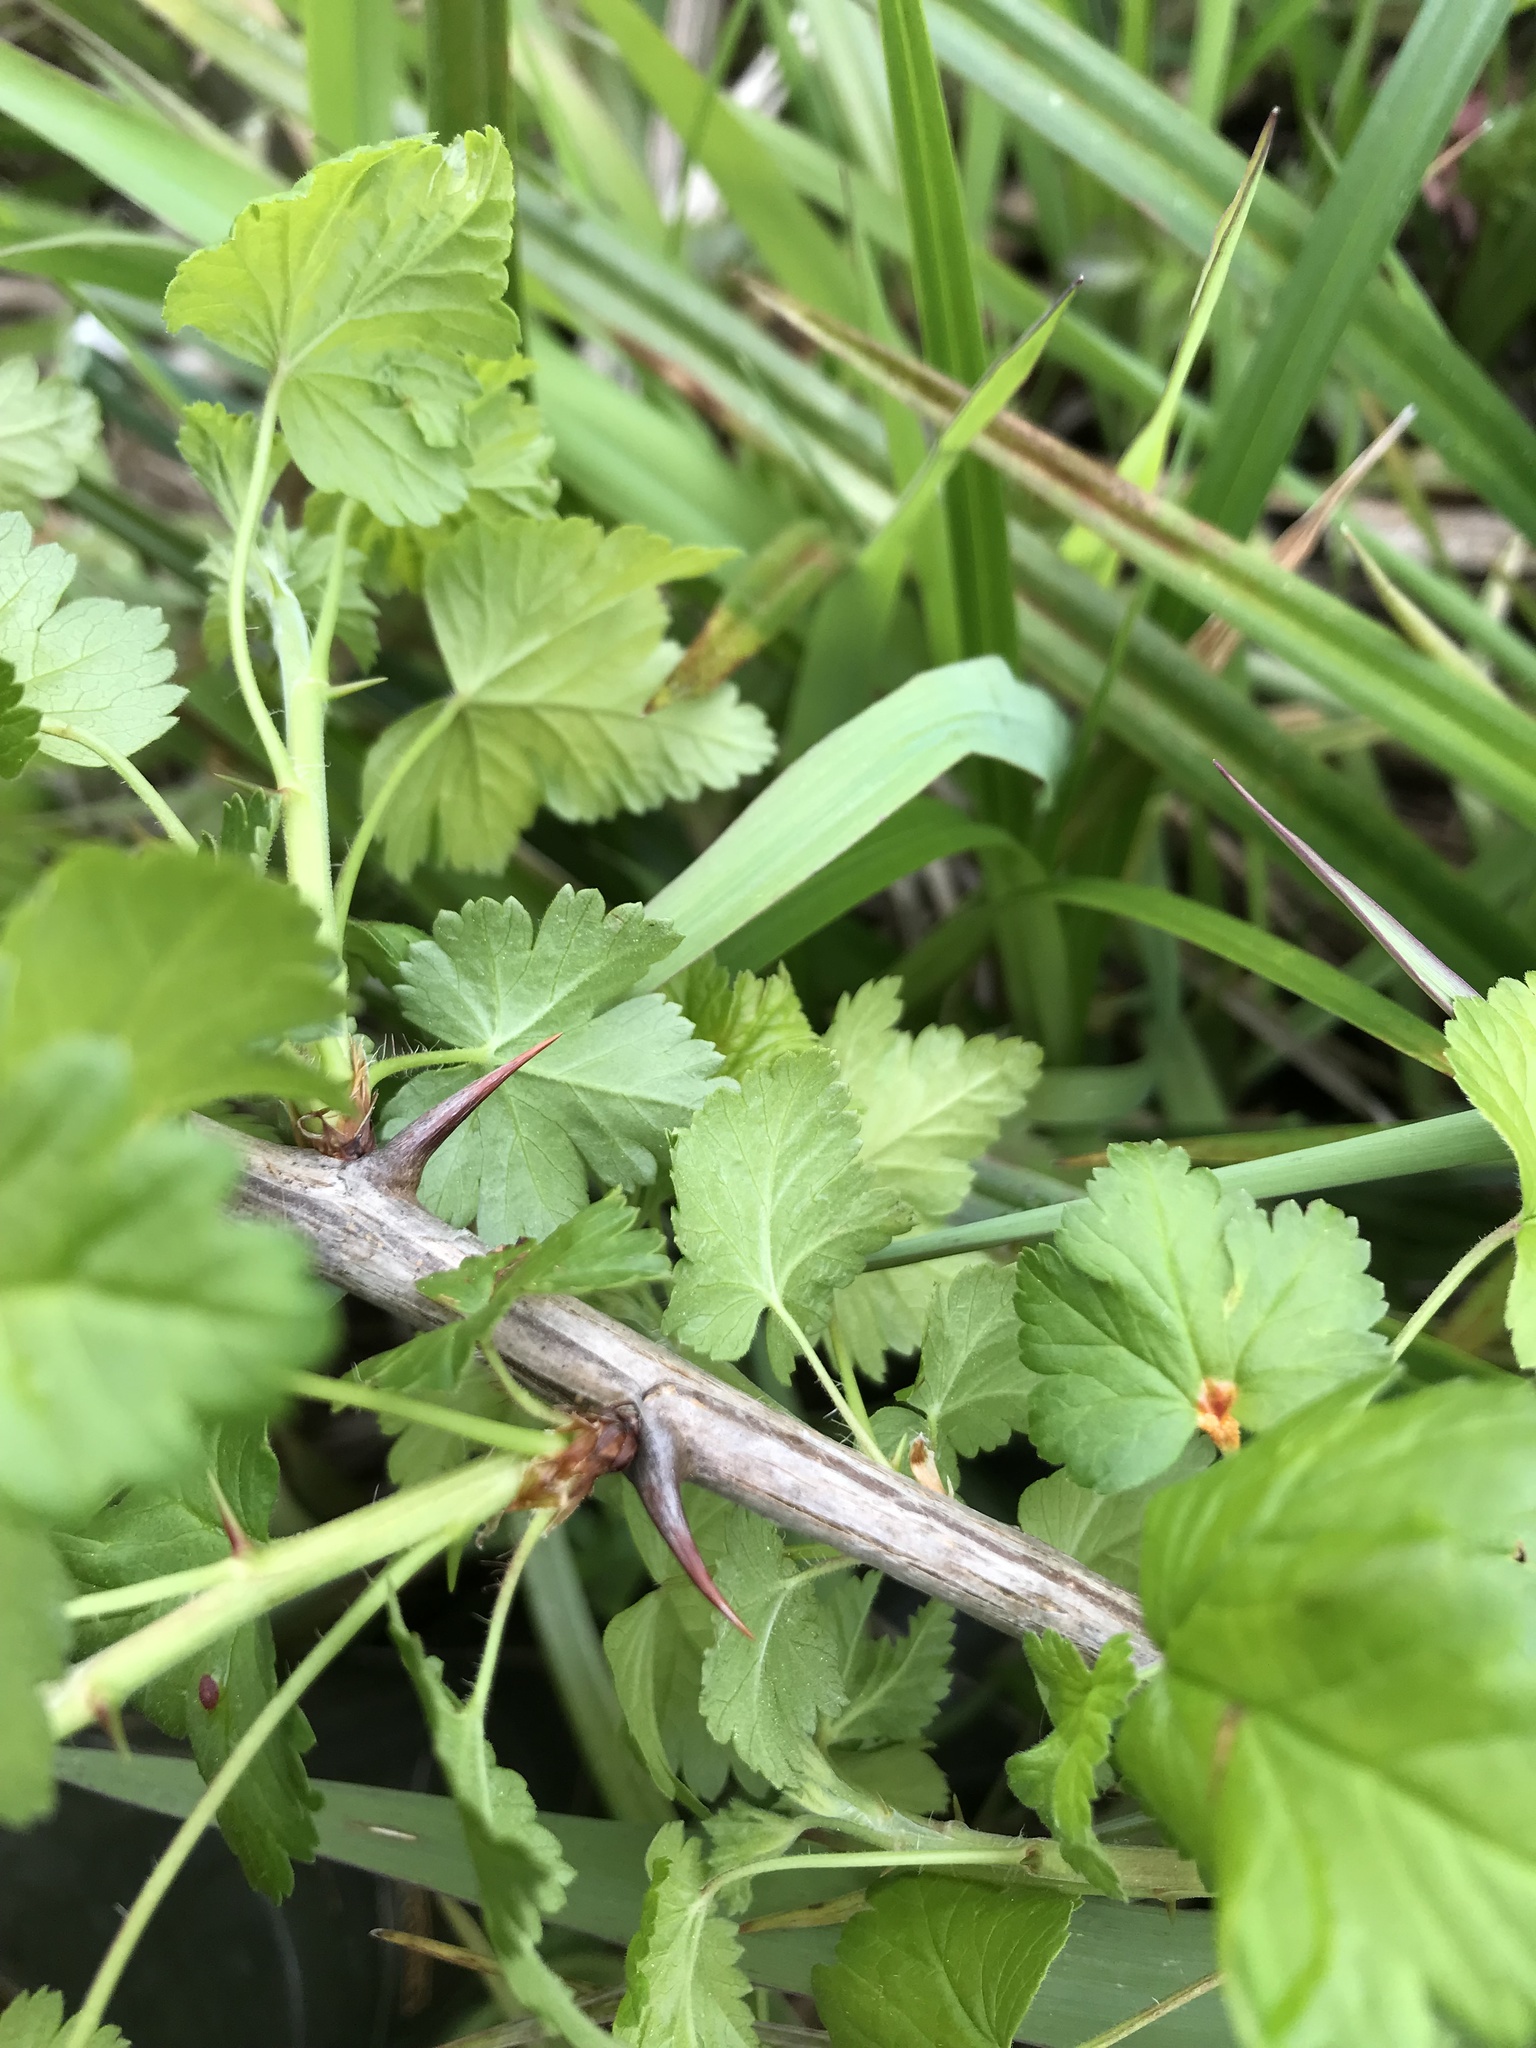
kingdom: Plantae
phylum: Tracheophyta
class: Magnoliopsida
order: Saxifragales
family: Grossulariaceae
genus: Ribes
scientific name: Ribes divaricatum
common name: Wild black gooseberry
